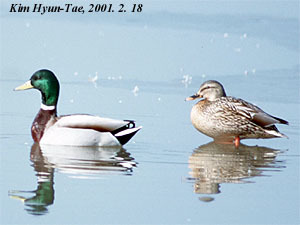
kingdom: Animalia
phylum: Chordata
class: Aves
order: Anseriformes
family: Anatidae
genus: Anas
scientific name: Anas platyrhynchos
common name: Mallard
